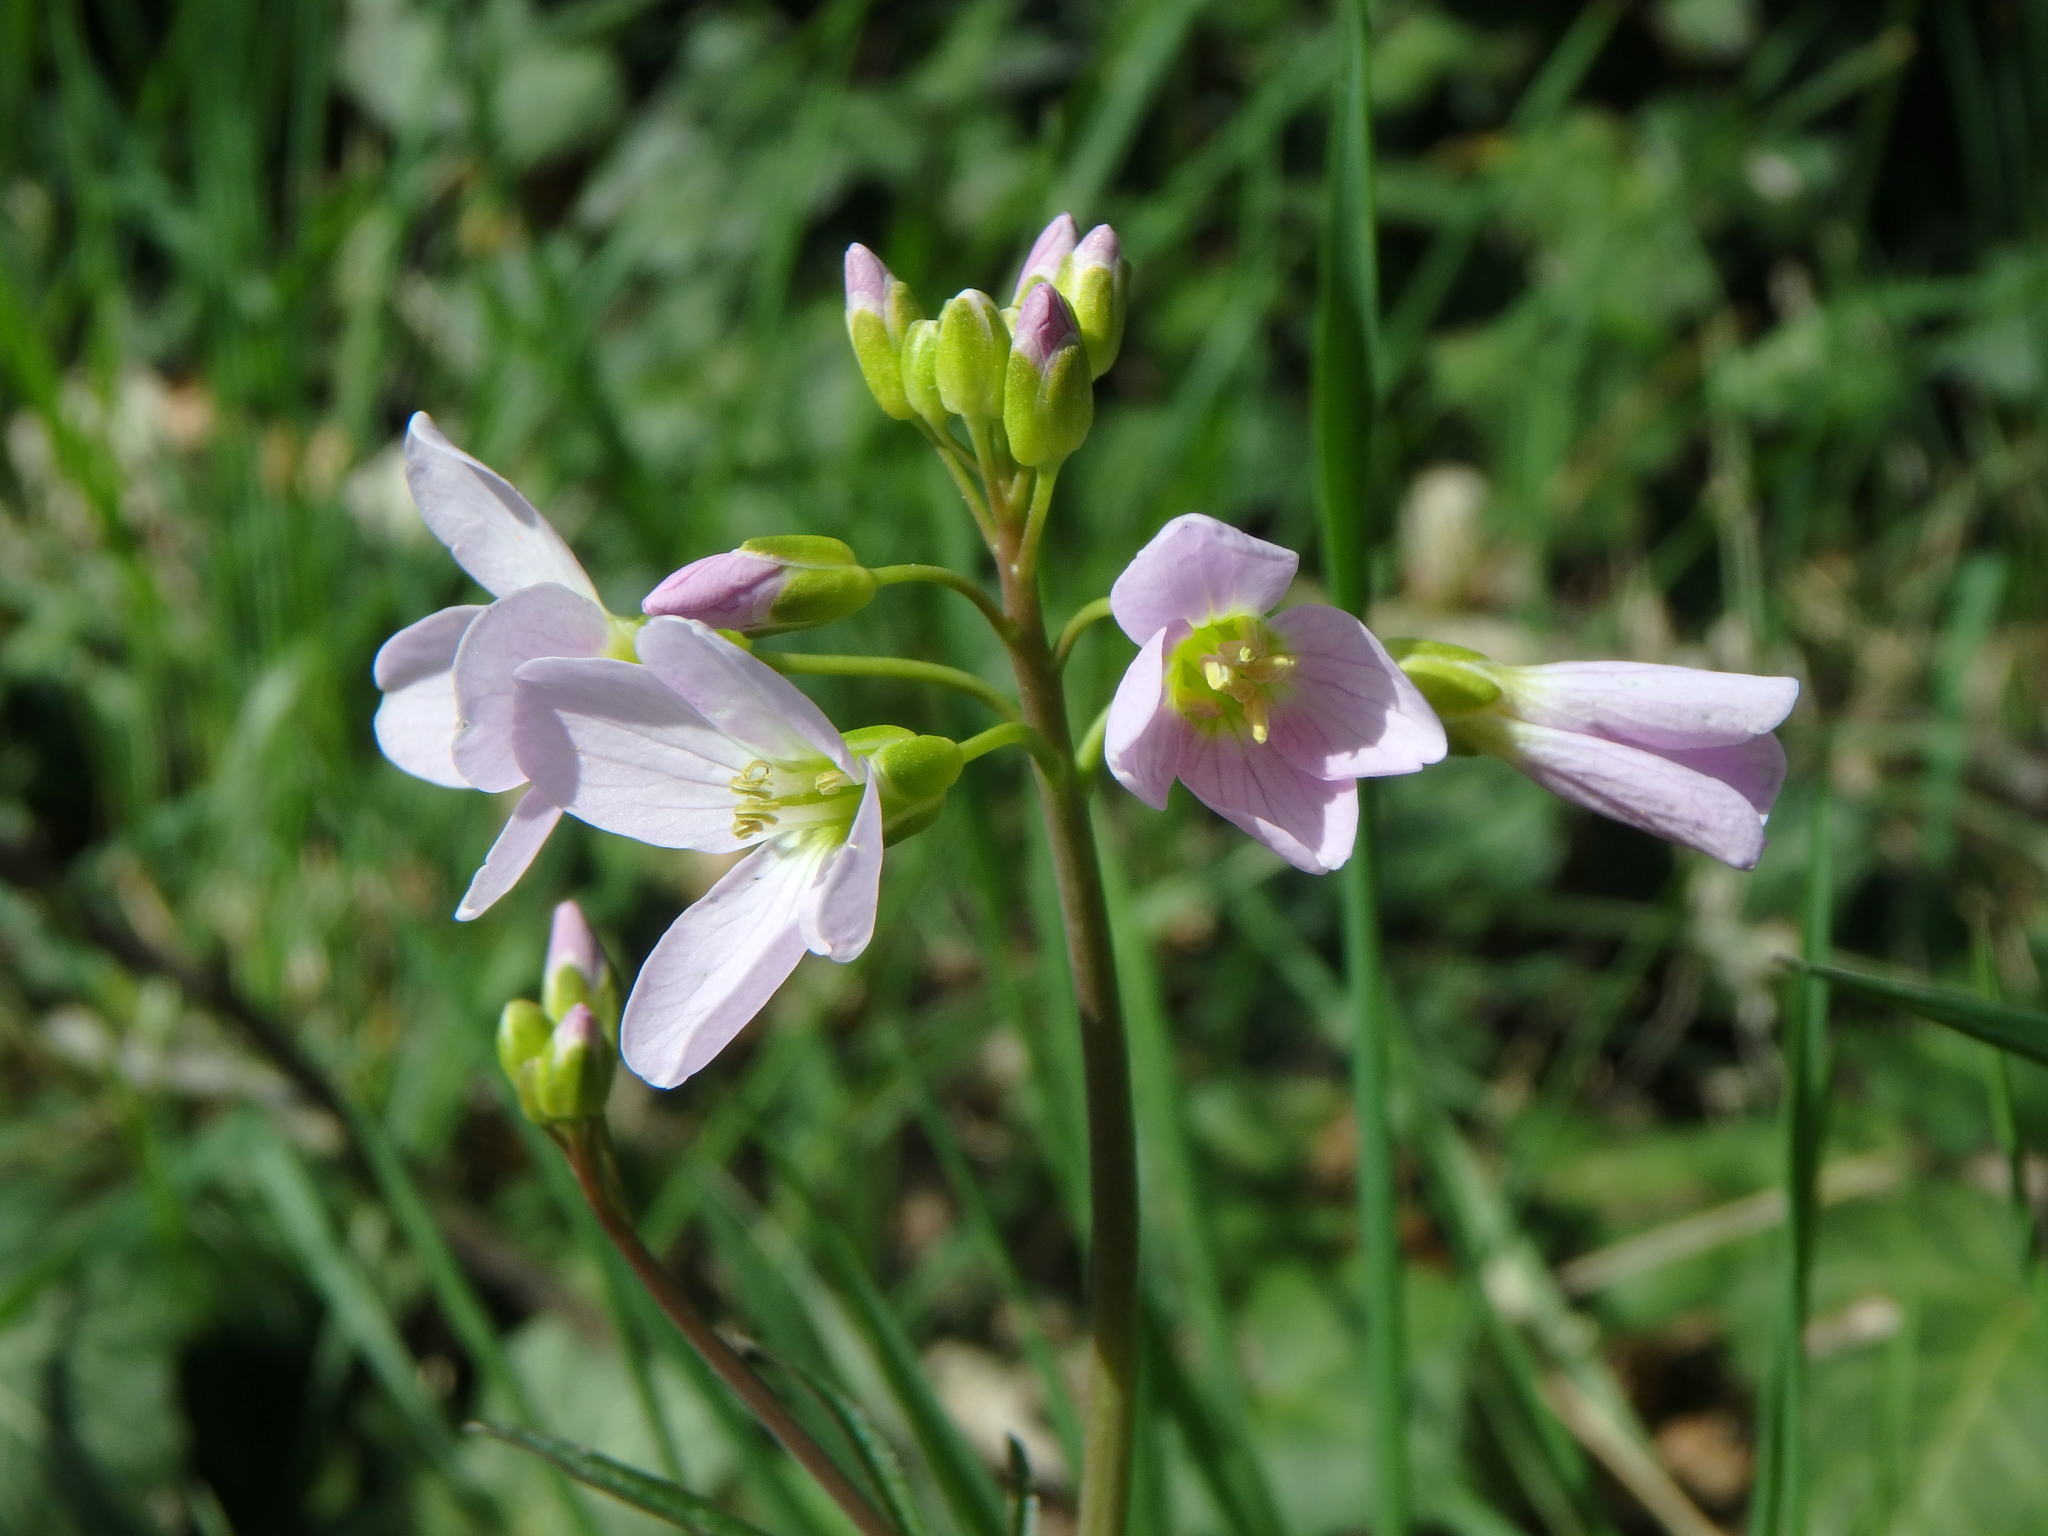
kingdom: Plantae
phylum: Tracheophyta
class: Magnoliopsida
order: Brassicales
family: Brassicaceae
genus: Cardamine
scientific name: Cardamine pratensis
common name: Cuckoo flower
